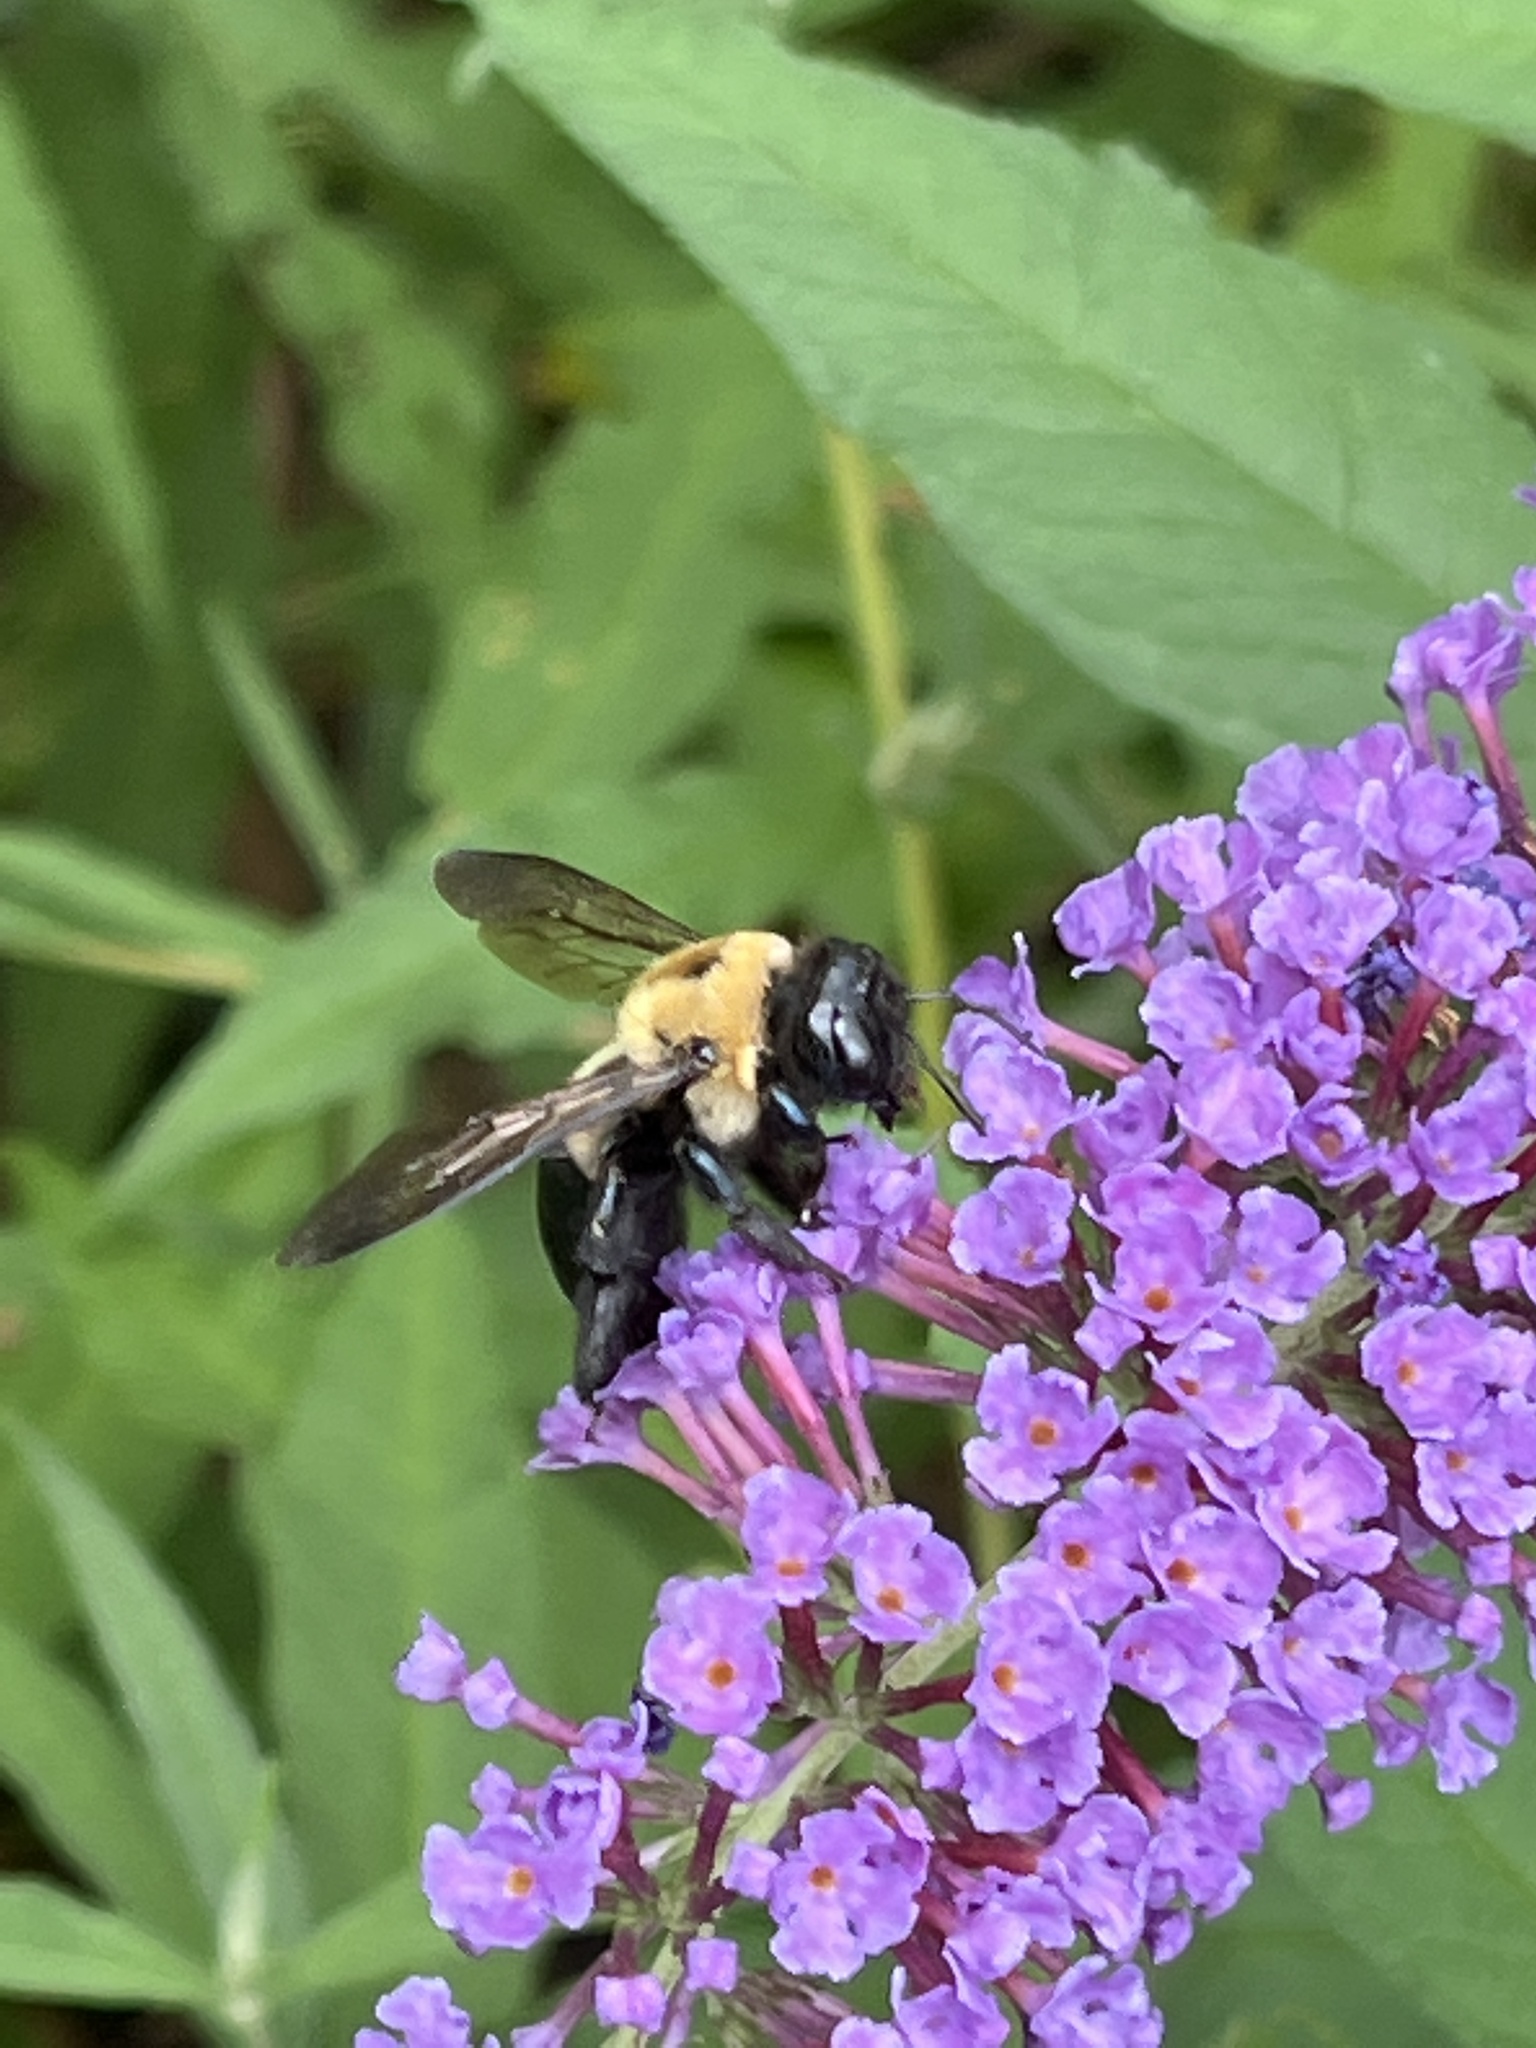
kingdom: Animalia
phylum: Arthropoda
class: Insecta
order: Hymenoptera
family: Apidae
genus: Xylocopa
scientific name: Xylocopa virginica
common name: Carpenter bee
